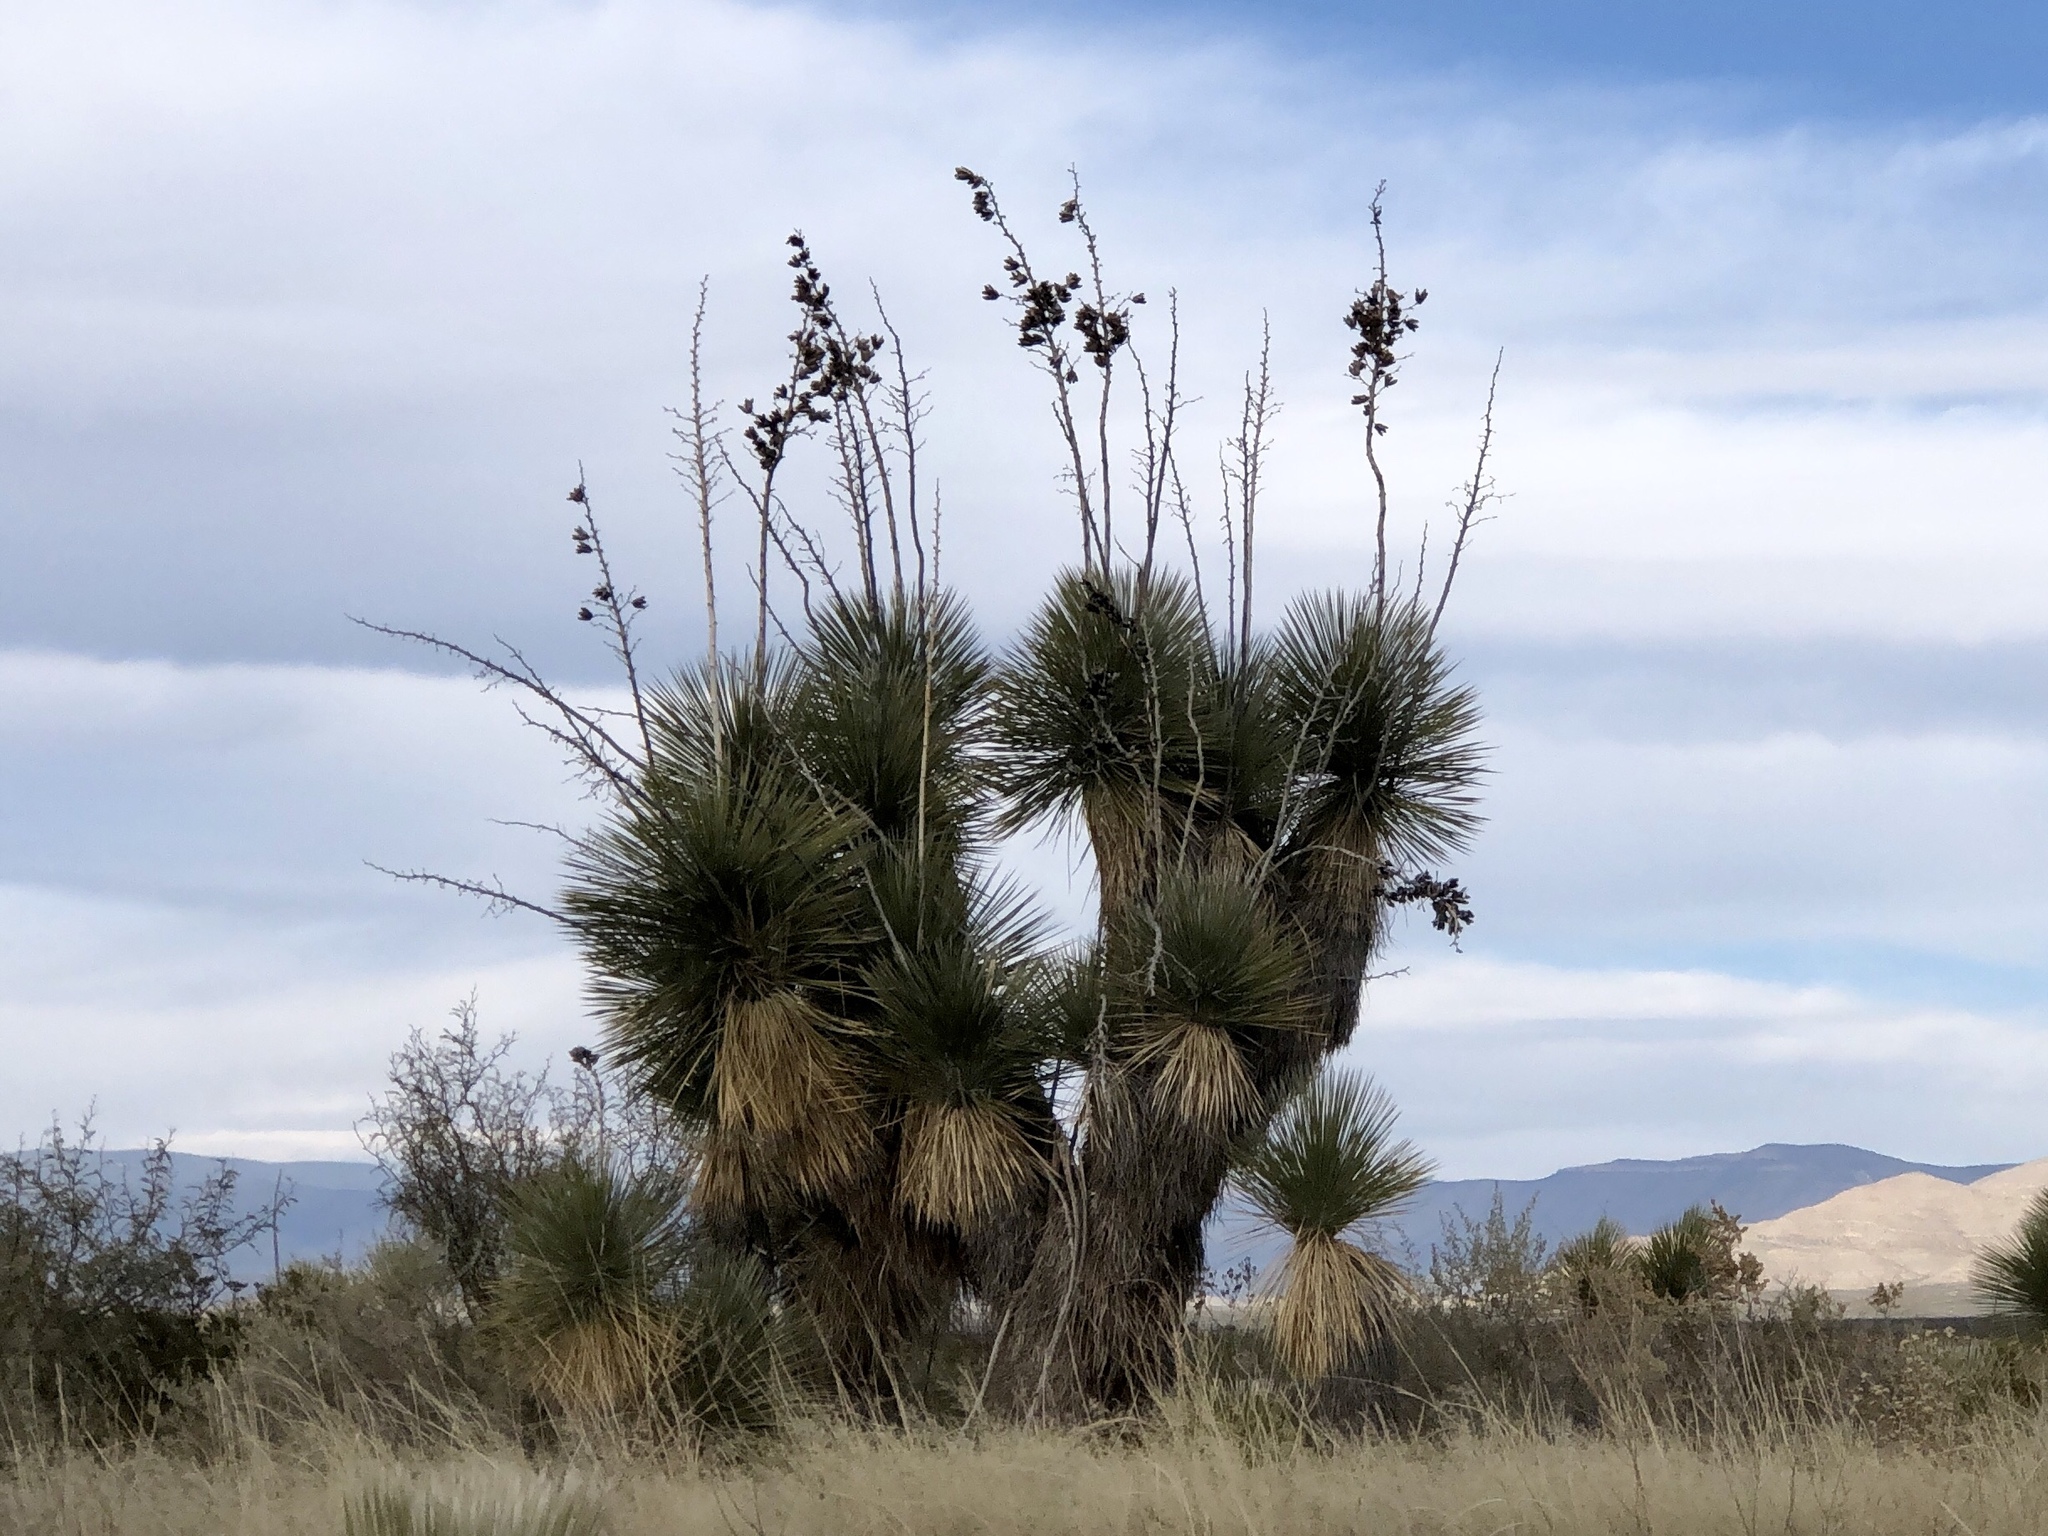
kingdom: Plantae
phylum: Tracheophyta
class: Liliopsida
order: Asparagales
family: Asparagaceae
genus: Yucca
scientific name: Yucca elata
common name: Palmella
